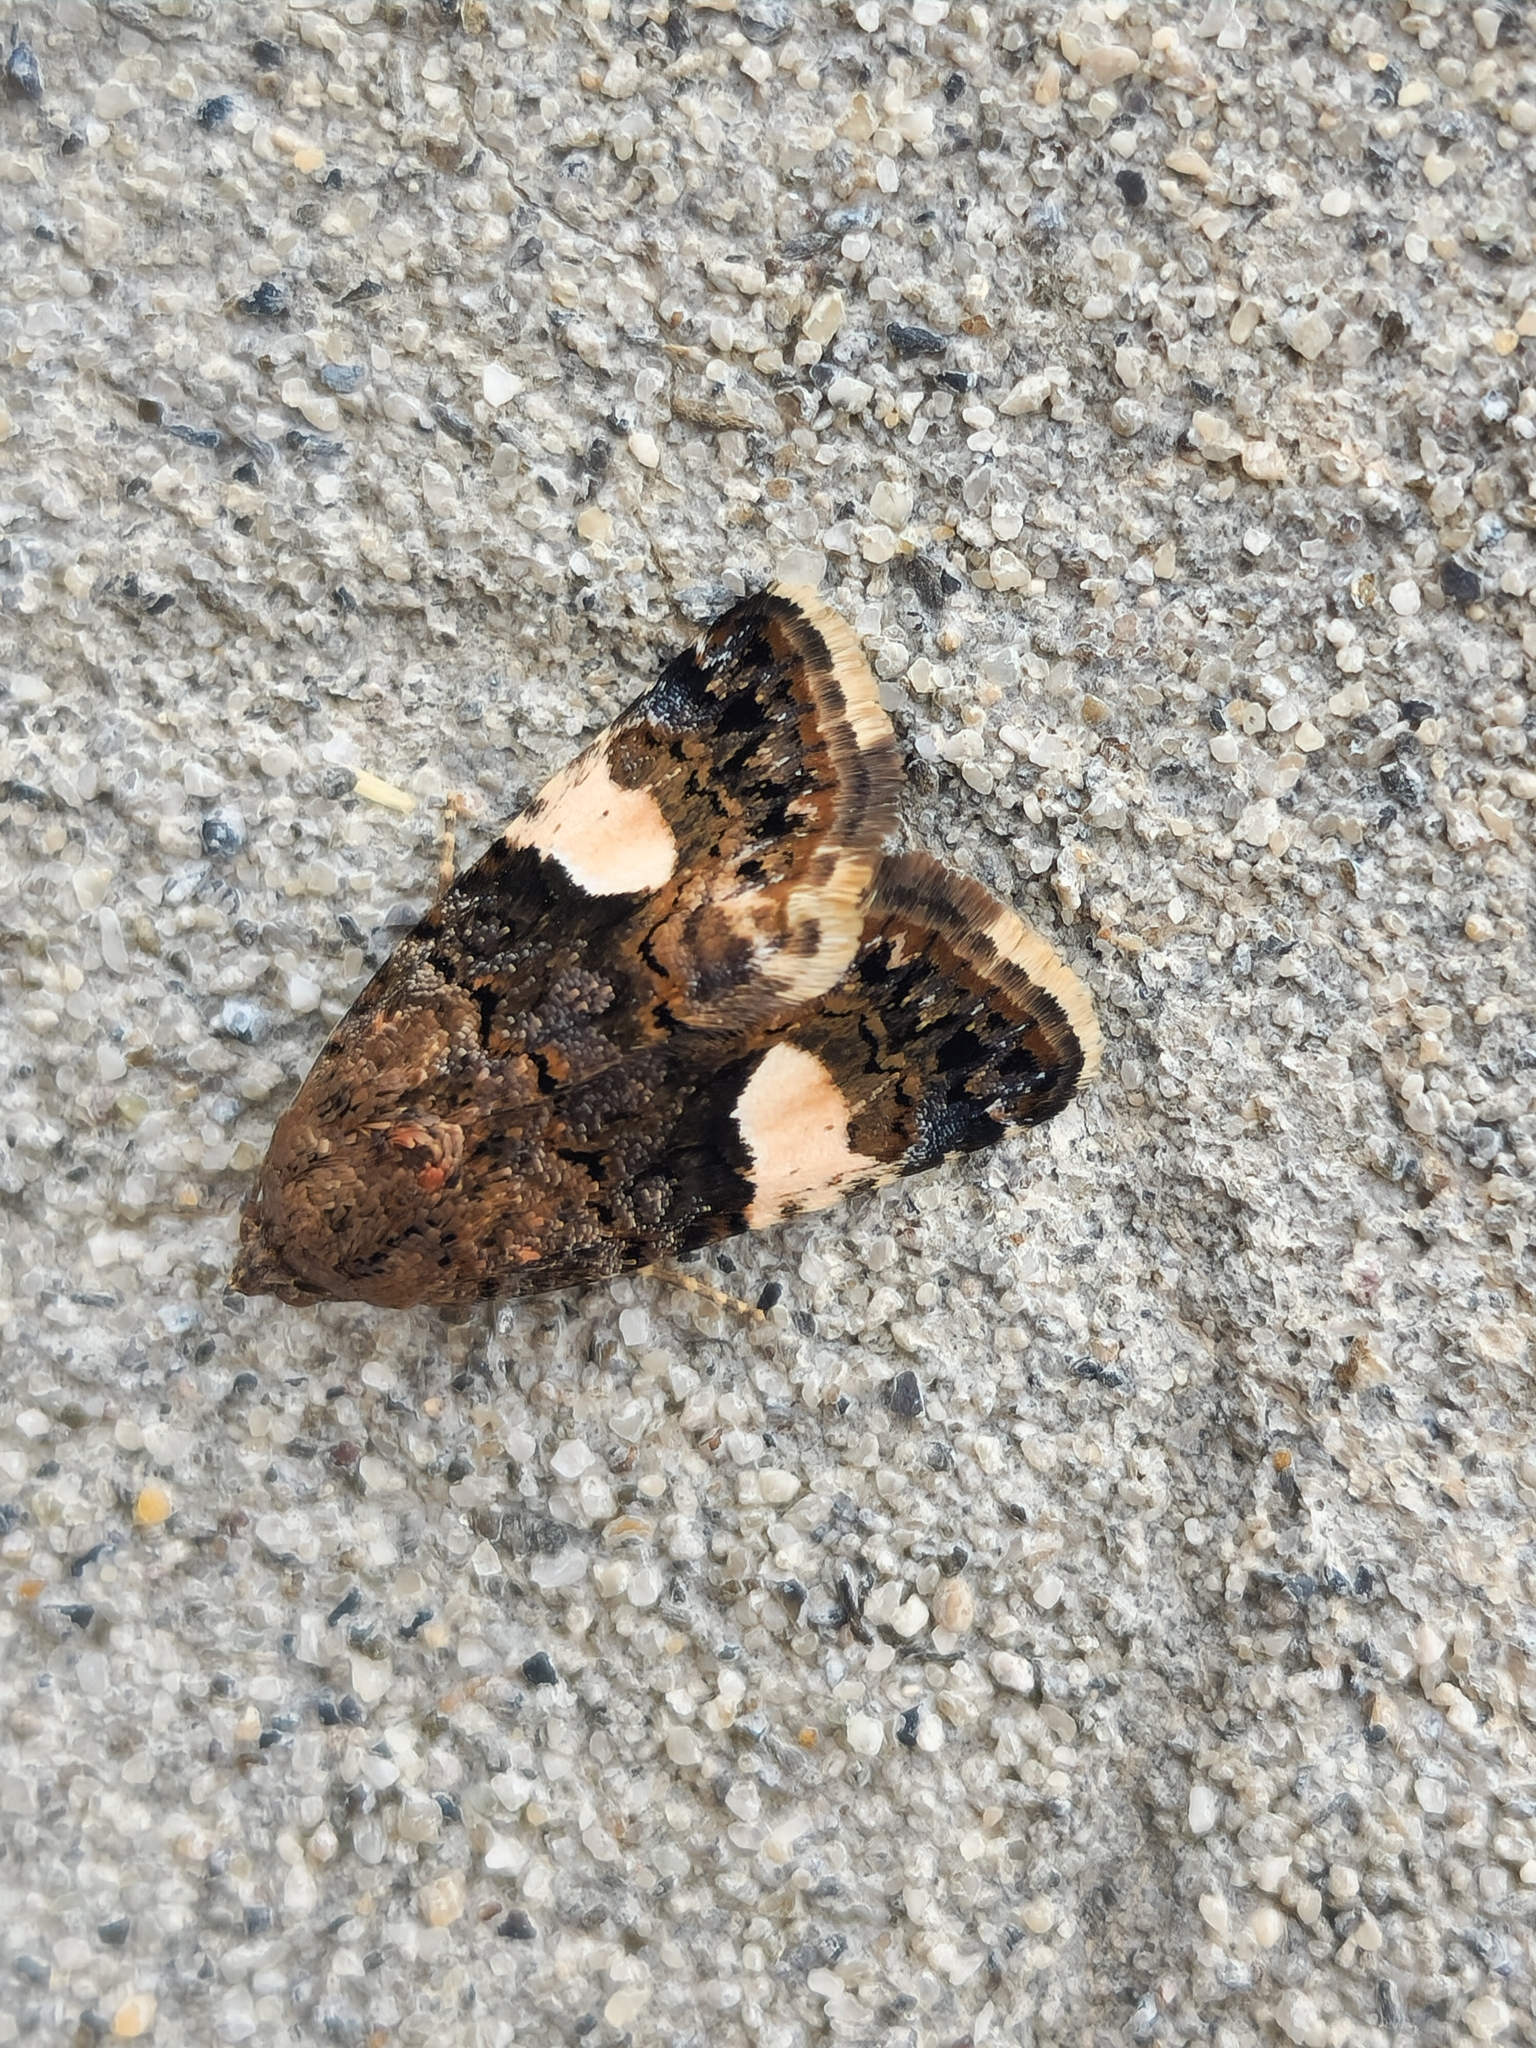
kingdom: Animalia
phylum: Arthropoda
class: Insecta
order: Lepidoptera
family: Erebidae
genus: Tyta
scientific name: Tyta luctuosa
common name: Four-spotted
